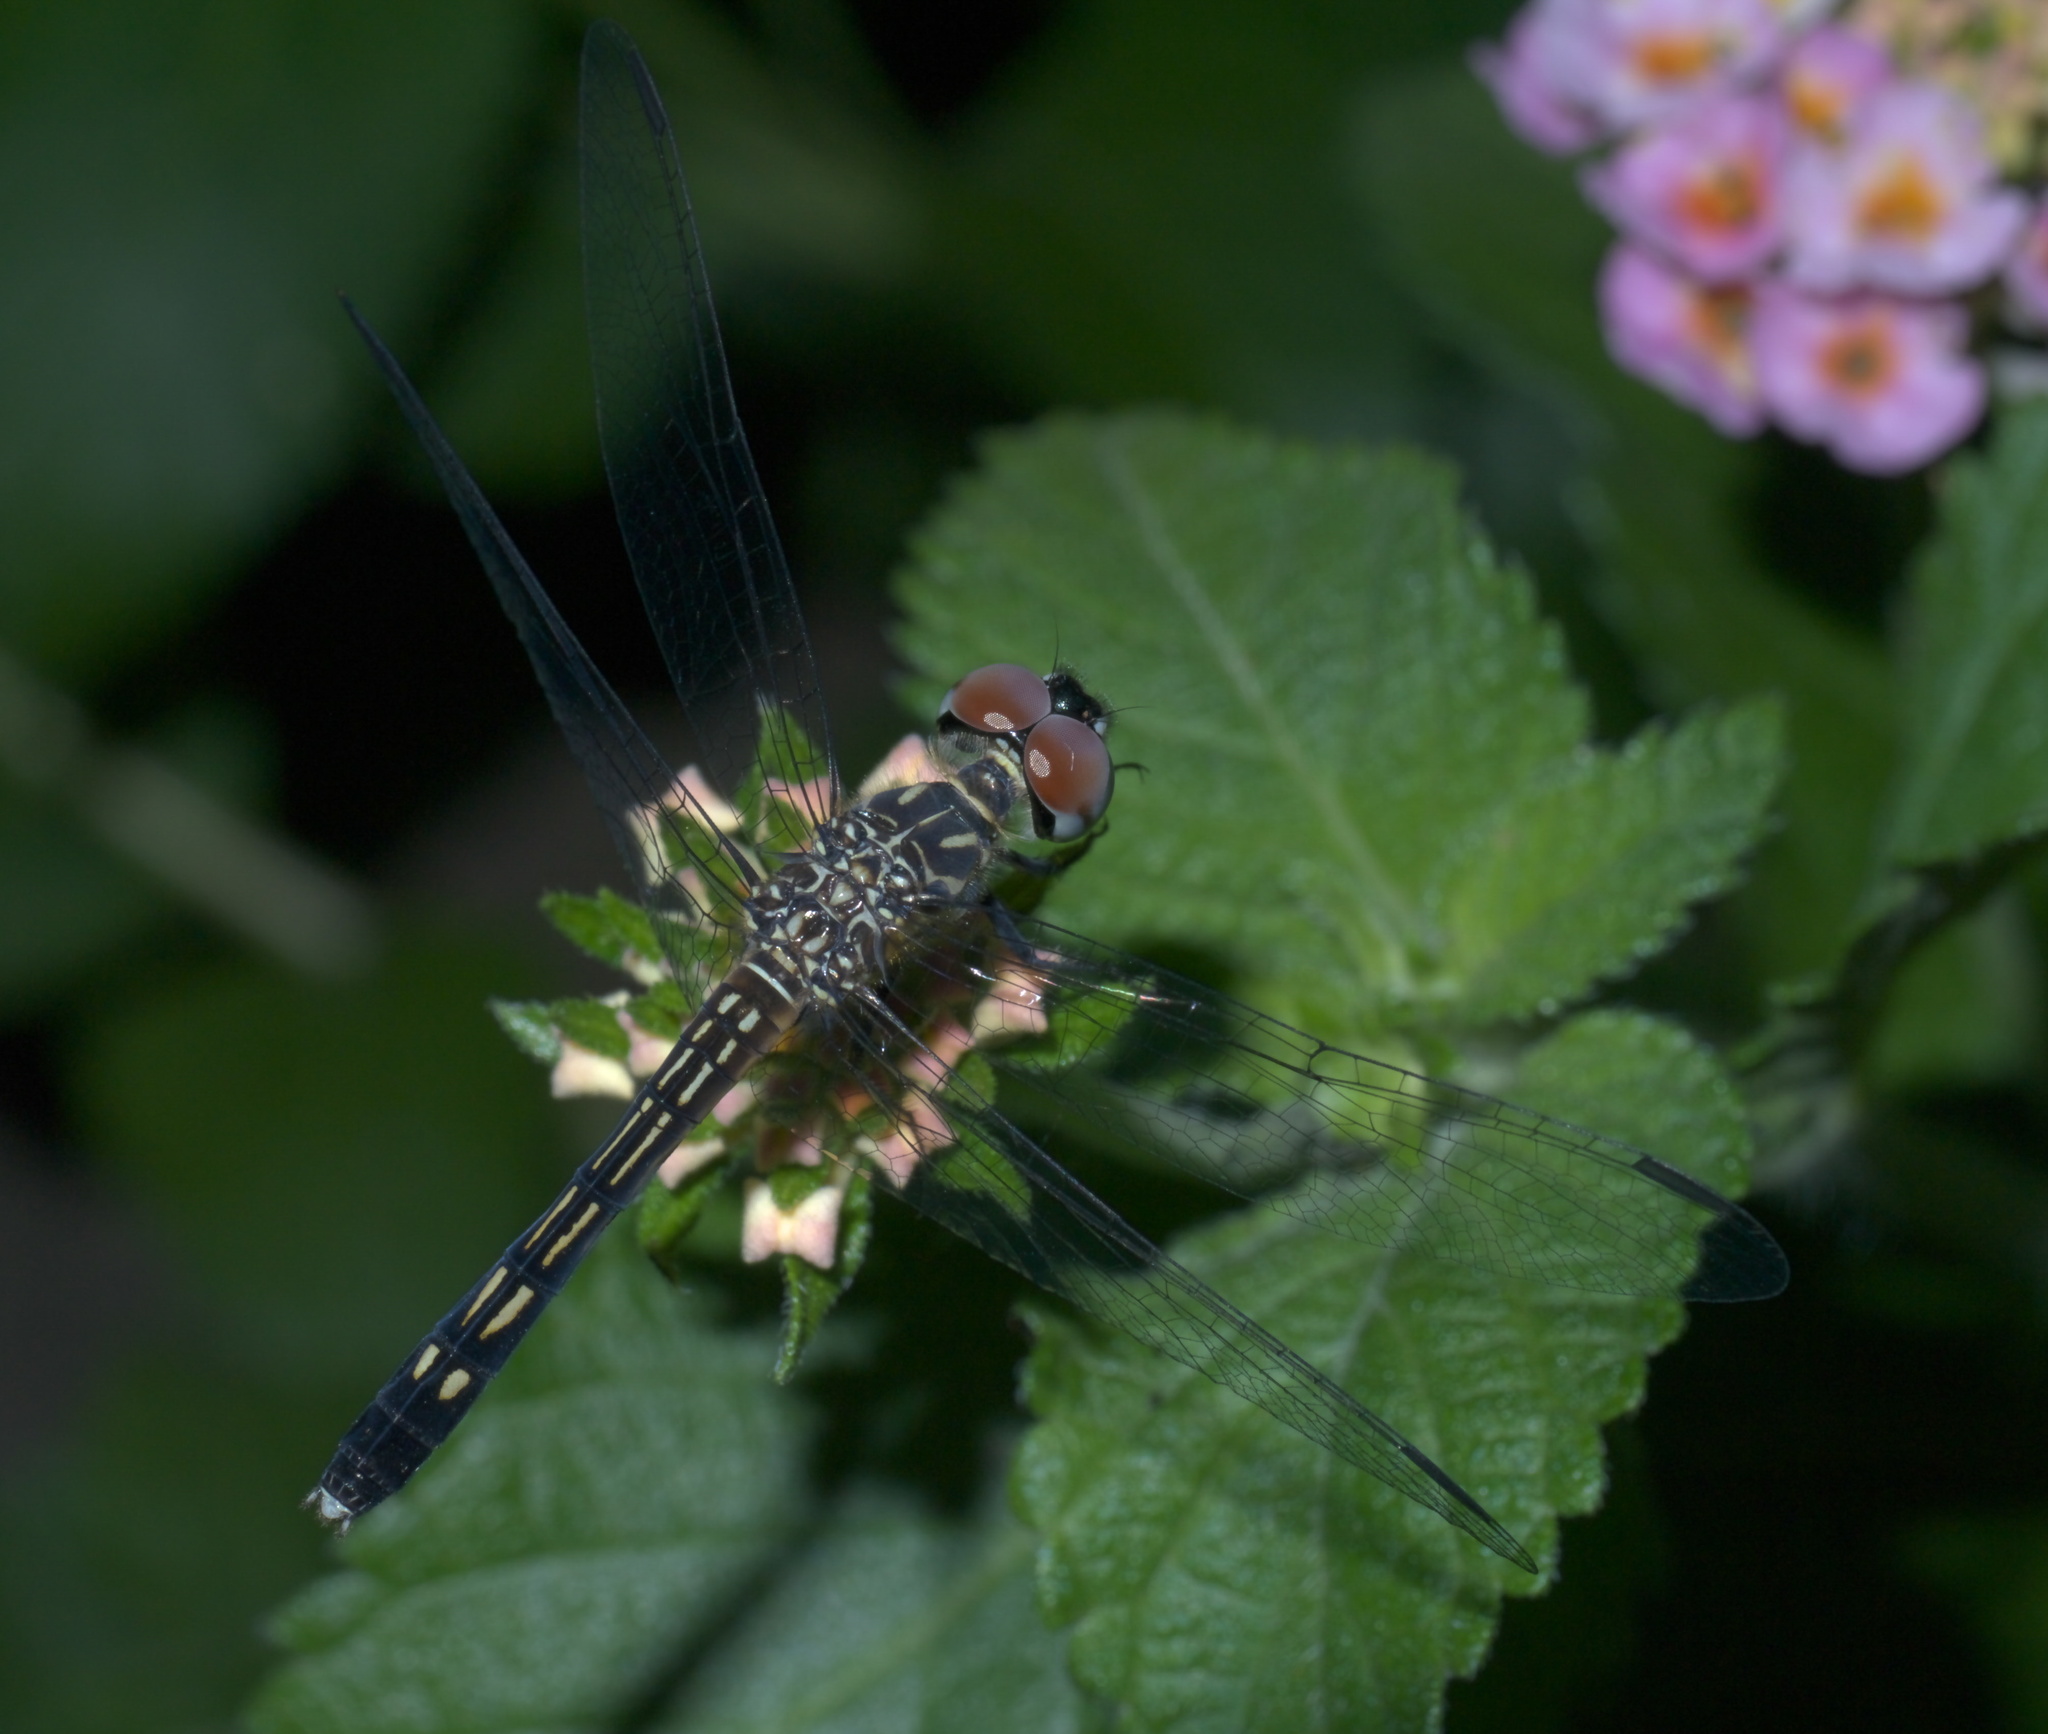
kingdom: Animalia
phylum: Arthropoda
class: Insecta
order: Odonata
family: Libellulidae
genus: Pachydiplax
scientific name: Pachydiplax longipennis
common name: Blue dasher
